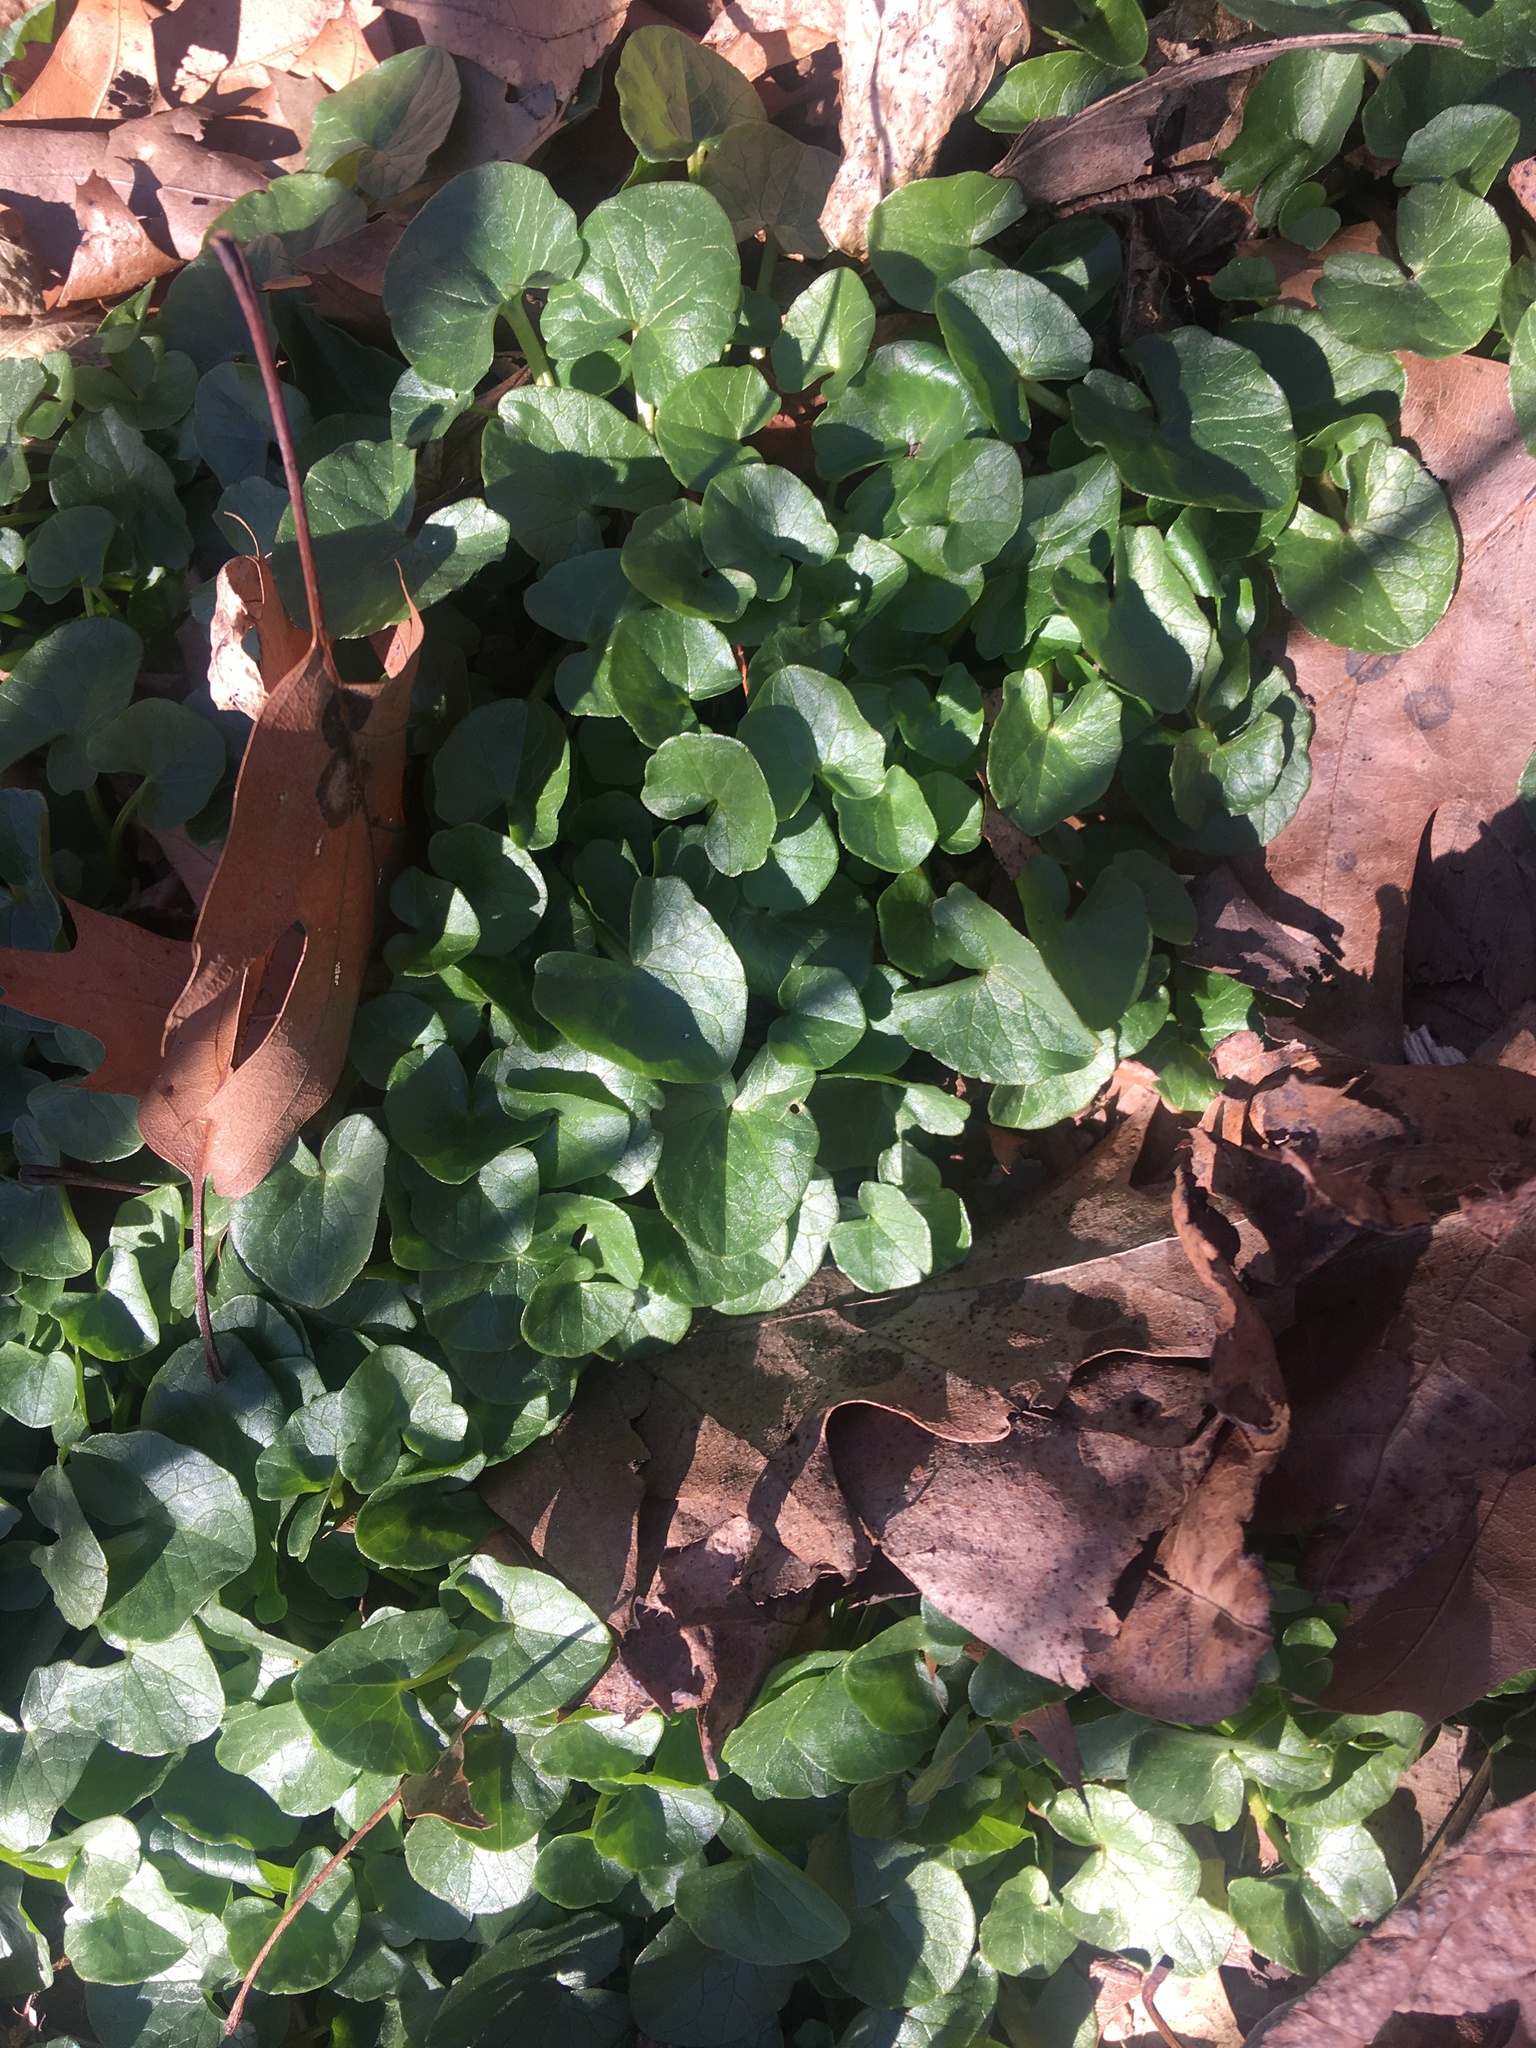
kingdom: Plantae
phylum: Tracheophyta
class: Magnoliopsida
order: Ranunculales
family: Ranunculaceae
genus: Ficaria
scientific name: Ficaria verna
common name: Lesser celandine
